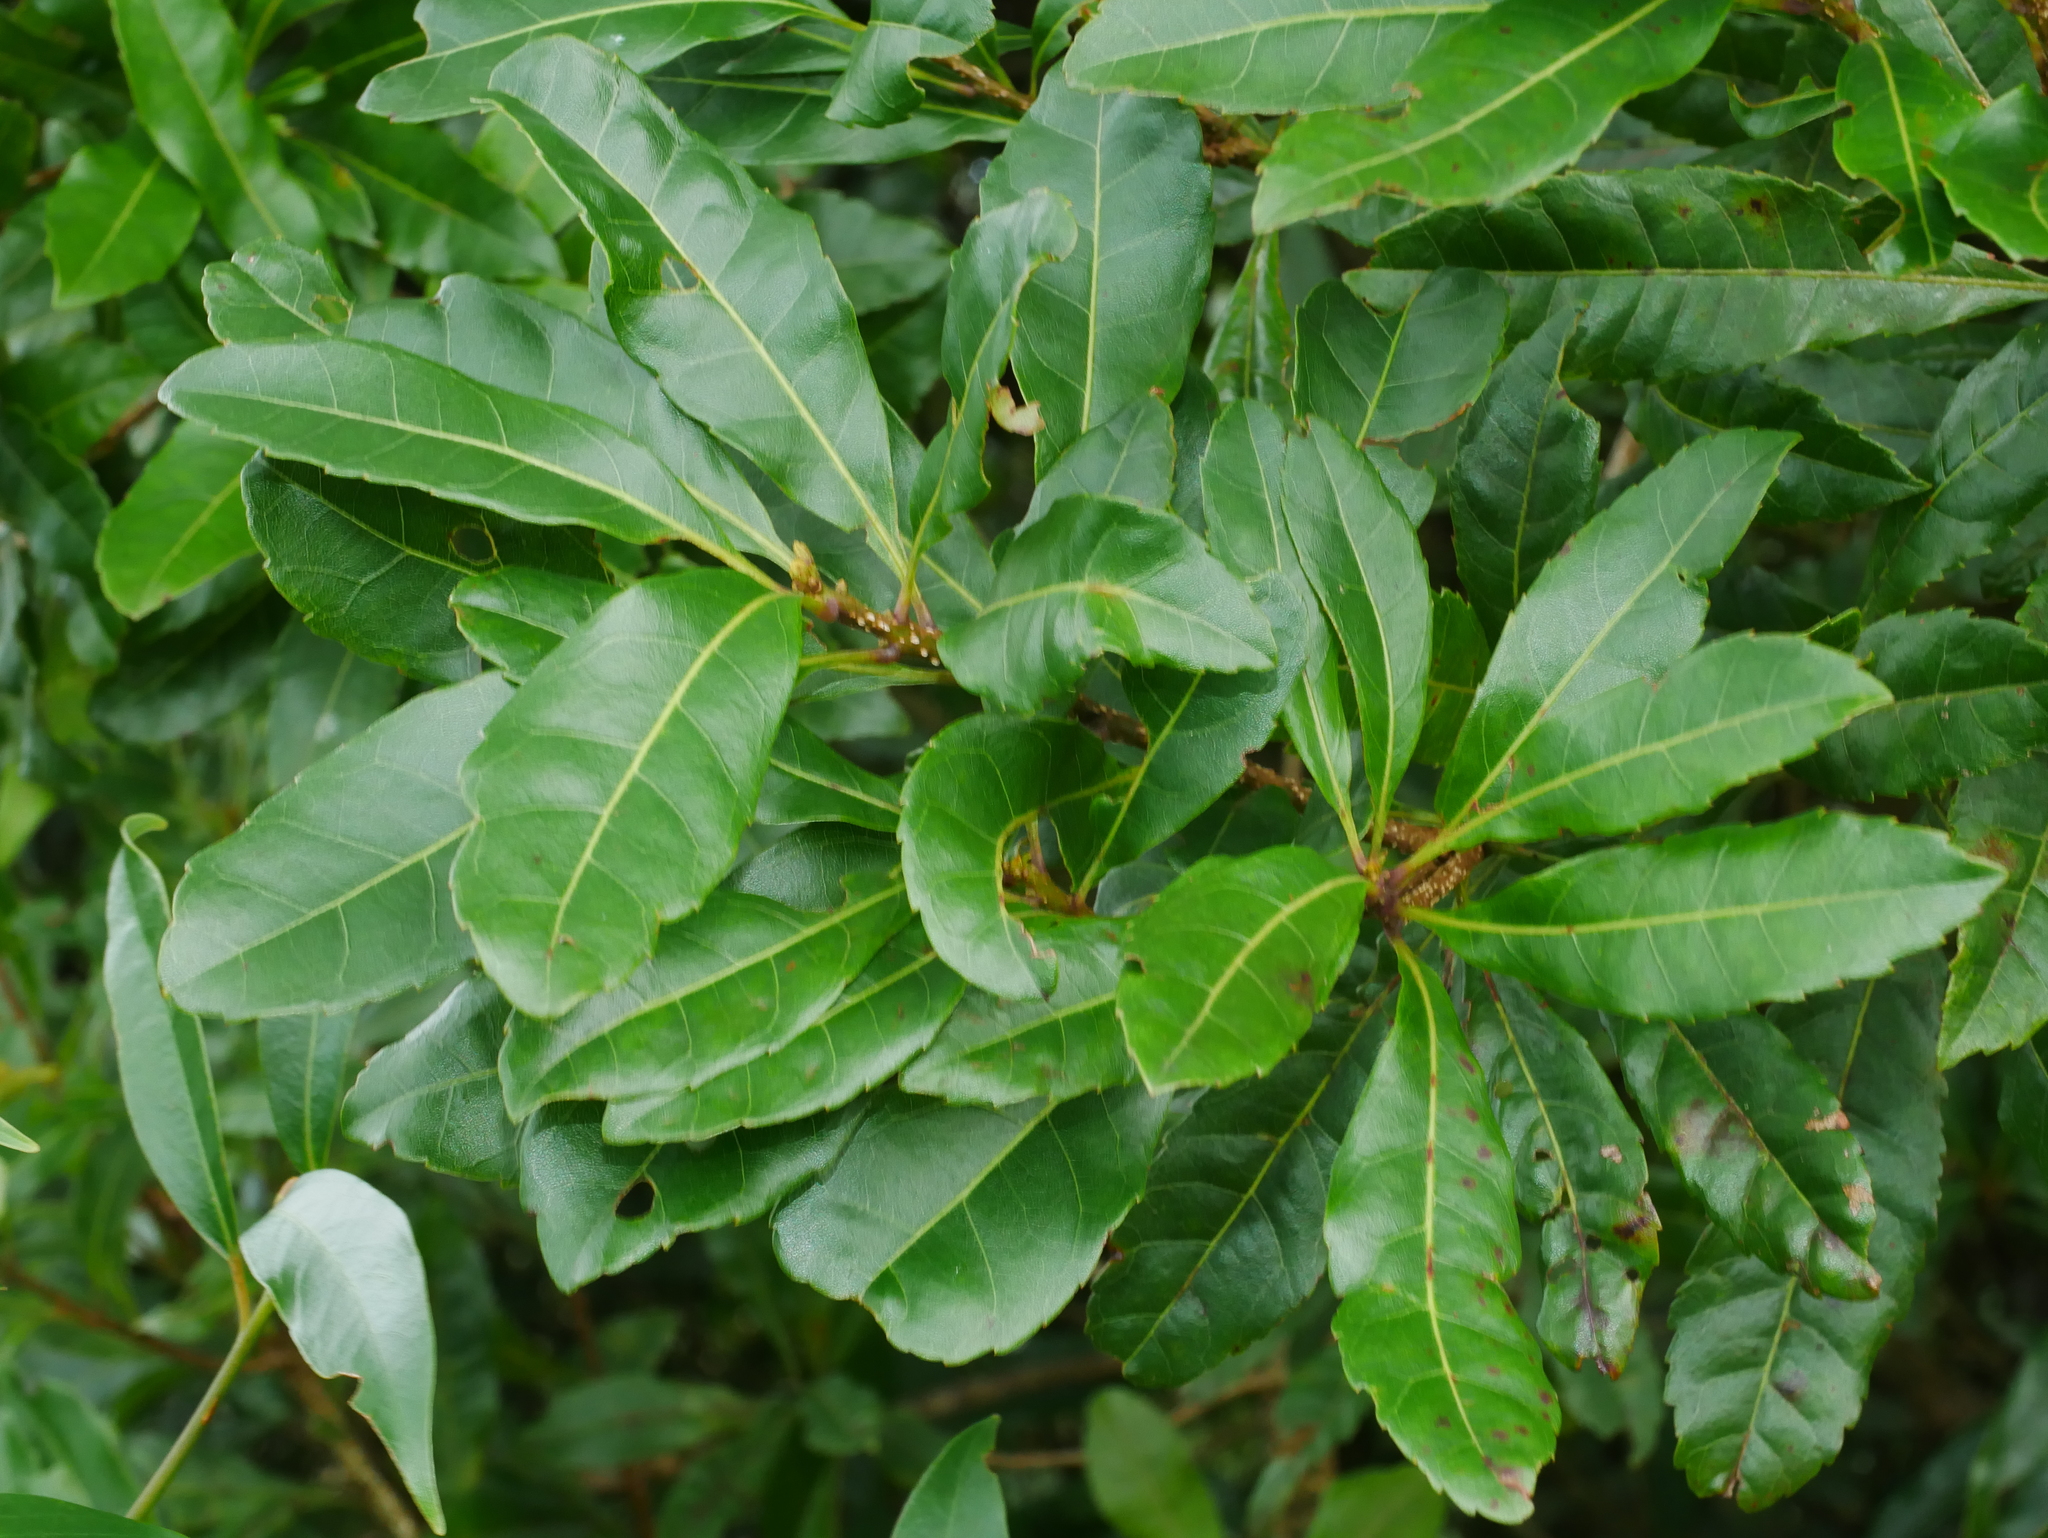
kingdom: Plantae
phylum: Tracheophyta
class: Magnoliopsida
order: Fagales
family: Myricaceae
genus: Morella
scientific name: Morella rubra
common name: Red bayberry
